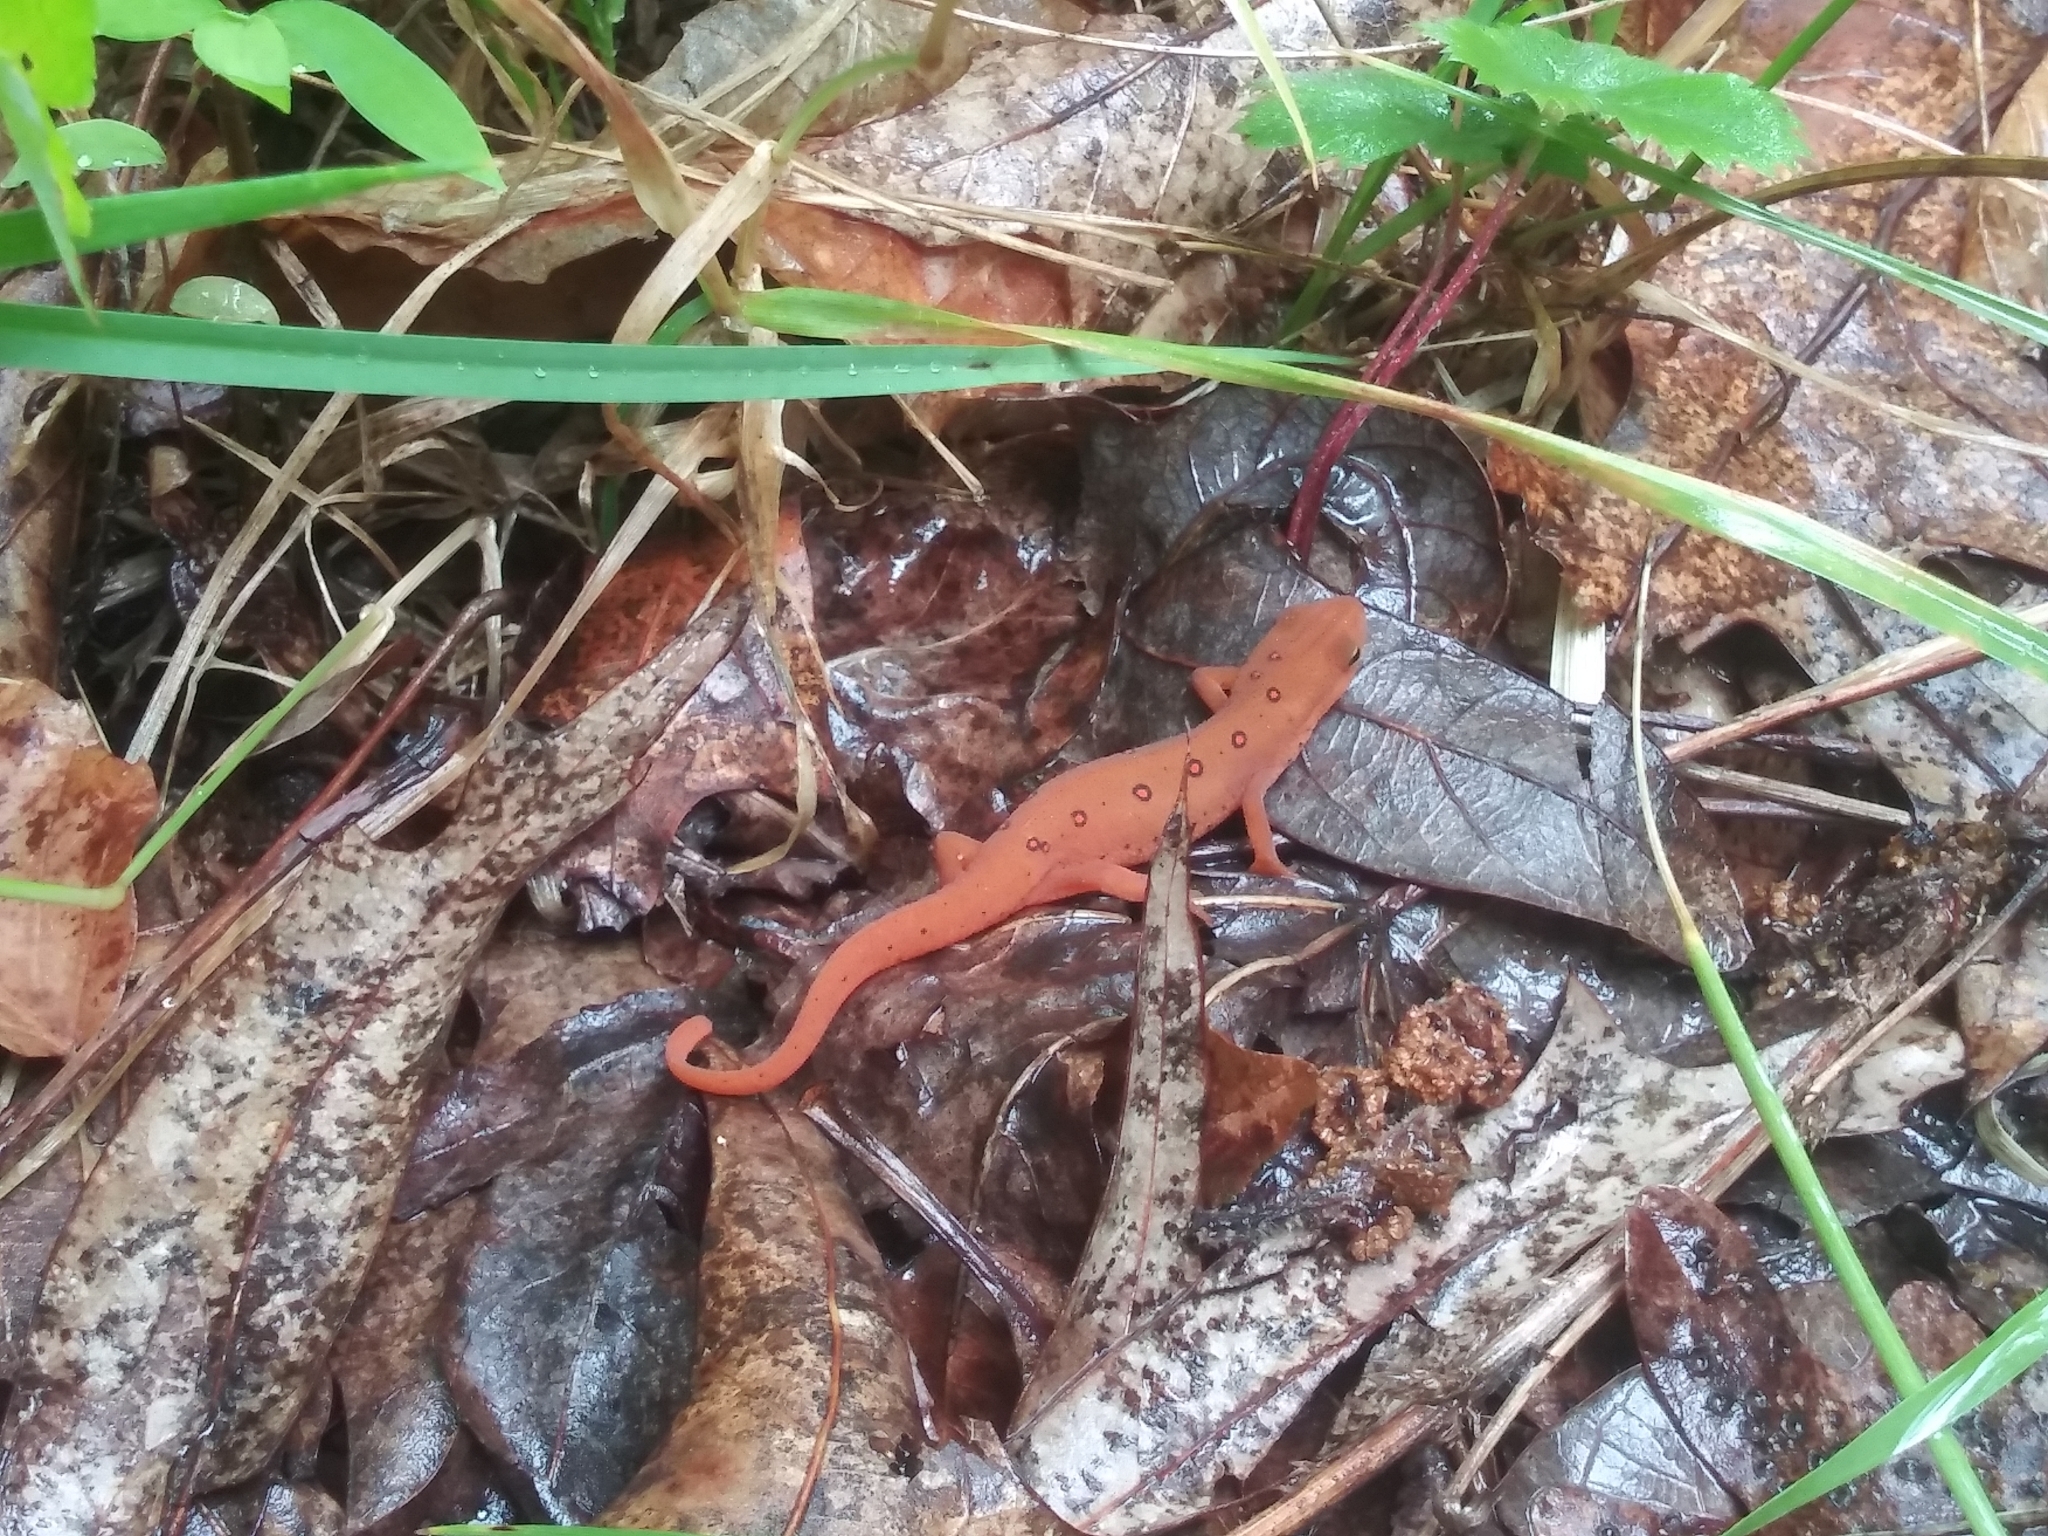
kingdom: Animalia
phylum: Chordata
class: Amphibia
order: Caudata
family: Salamandridae
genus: Notophthalmus
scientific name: Notophthalmus viridescens
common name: Eastern newt
